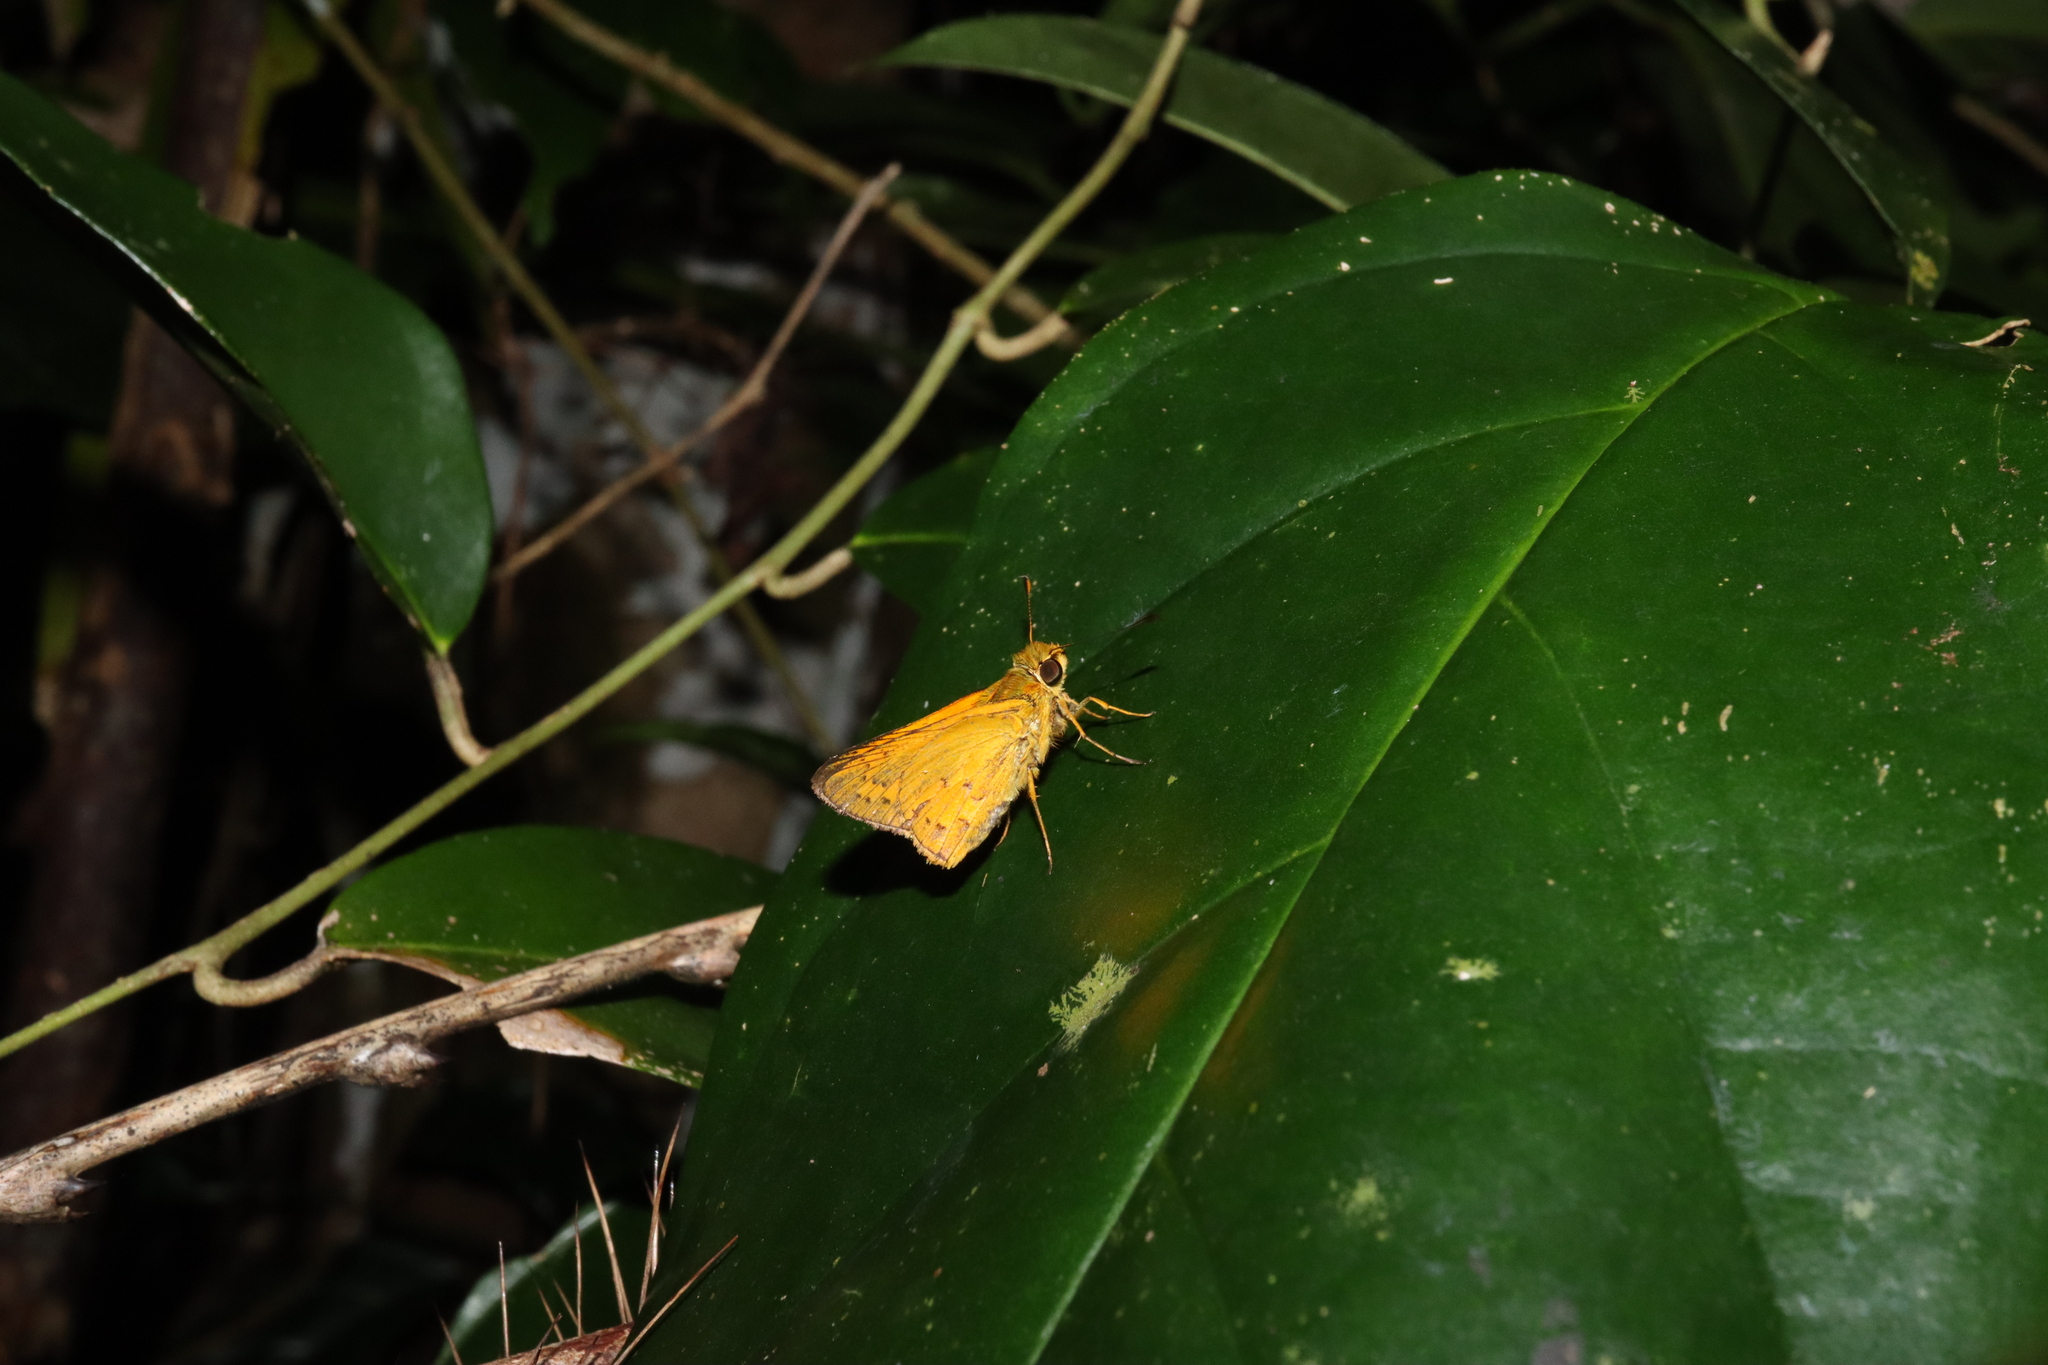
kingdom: Animalia
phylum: Arthropoda
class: Insecta
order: Lepidoptera
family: Hesperiidae
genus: Telicota
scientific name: Telicota paceka
